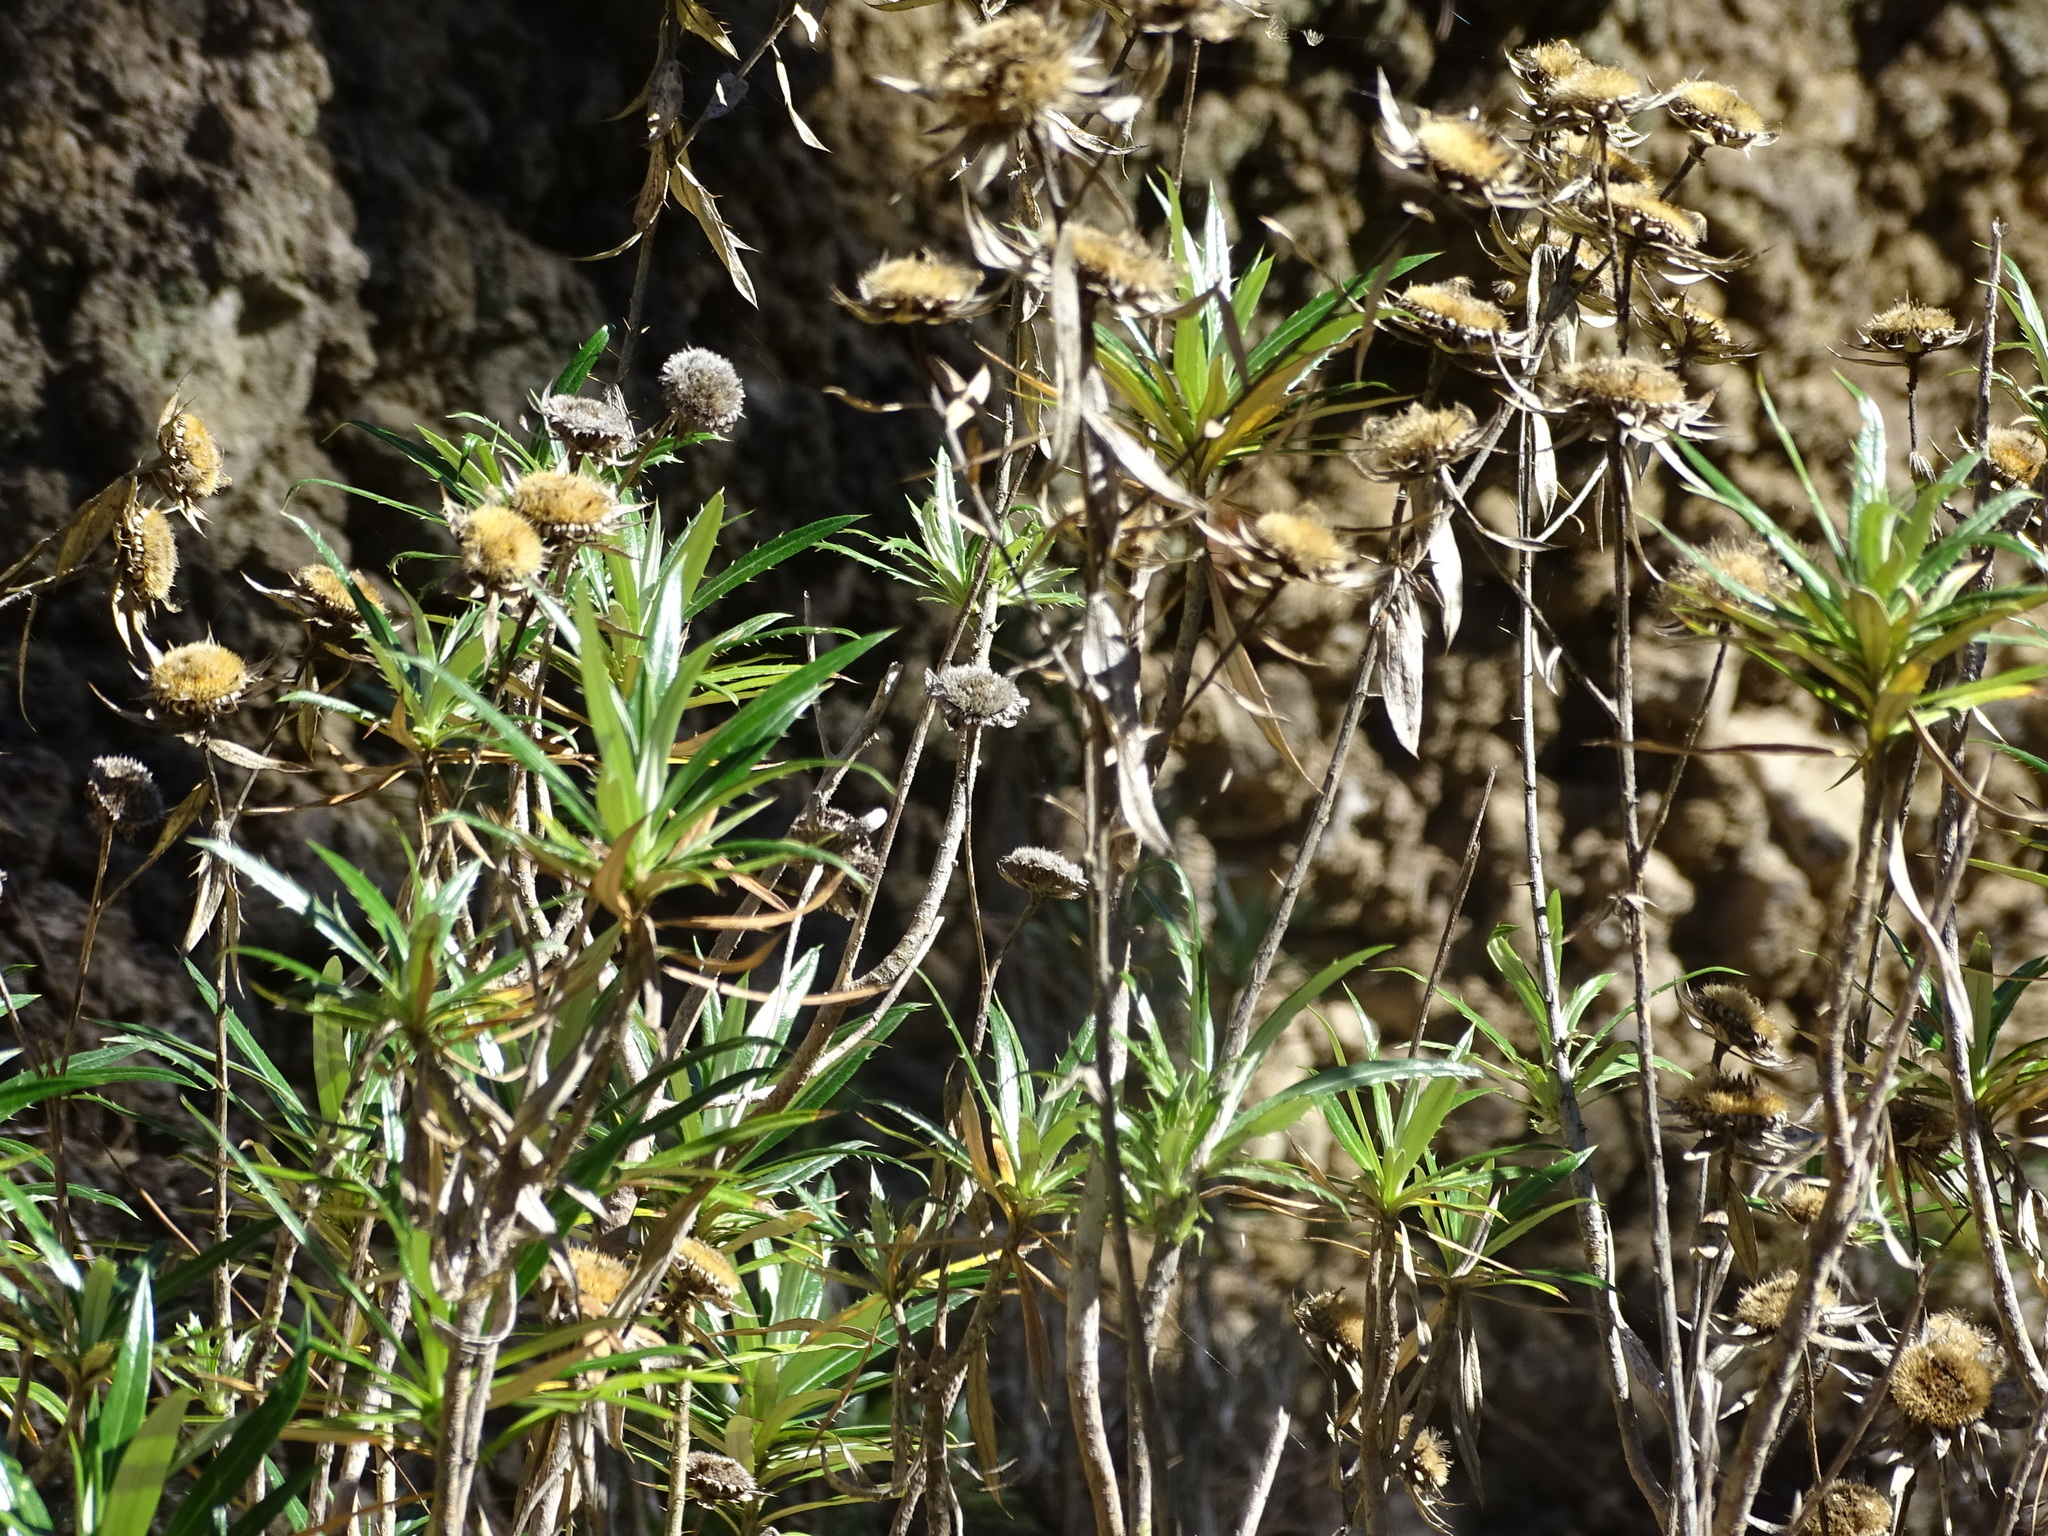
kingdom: Plantae
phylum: Tracheophyta
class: Magnoliopsida
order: Asterales
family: Asteraceae
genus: Carlina
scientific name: Carlina salicifolia
